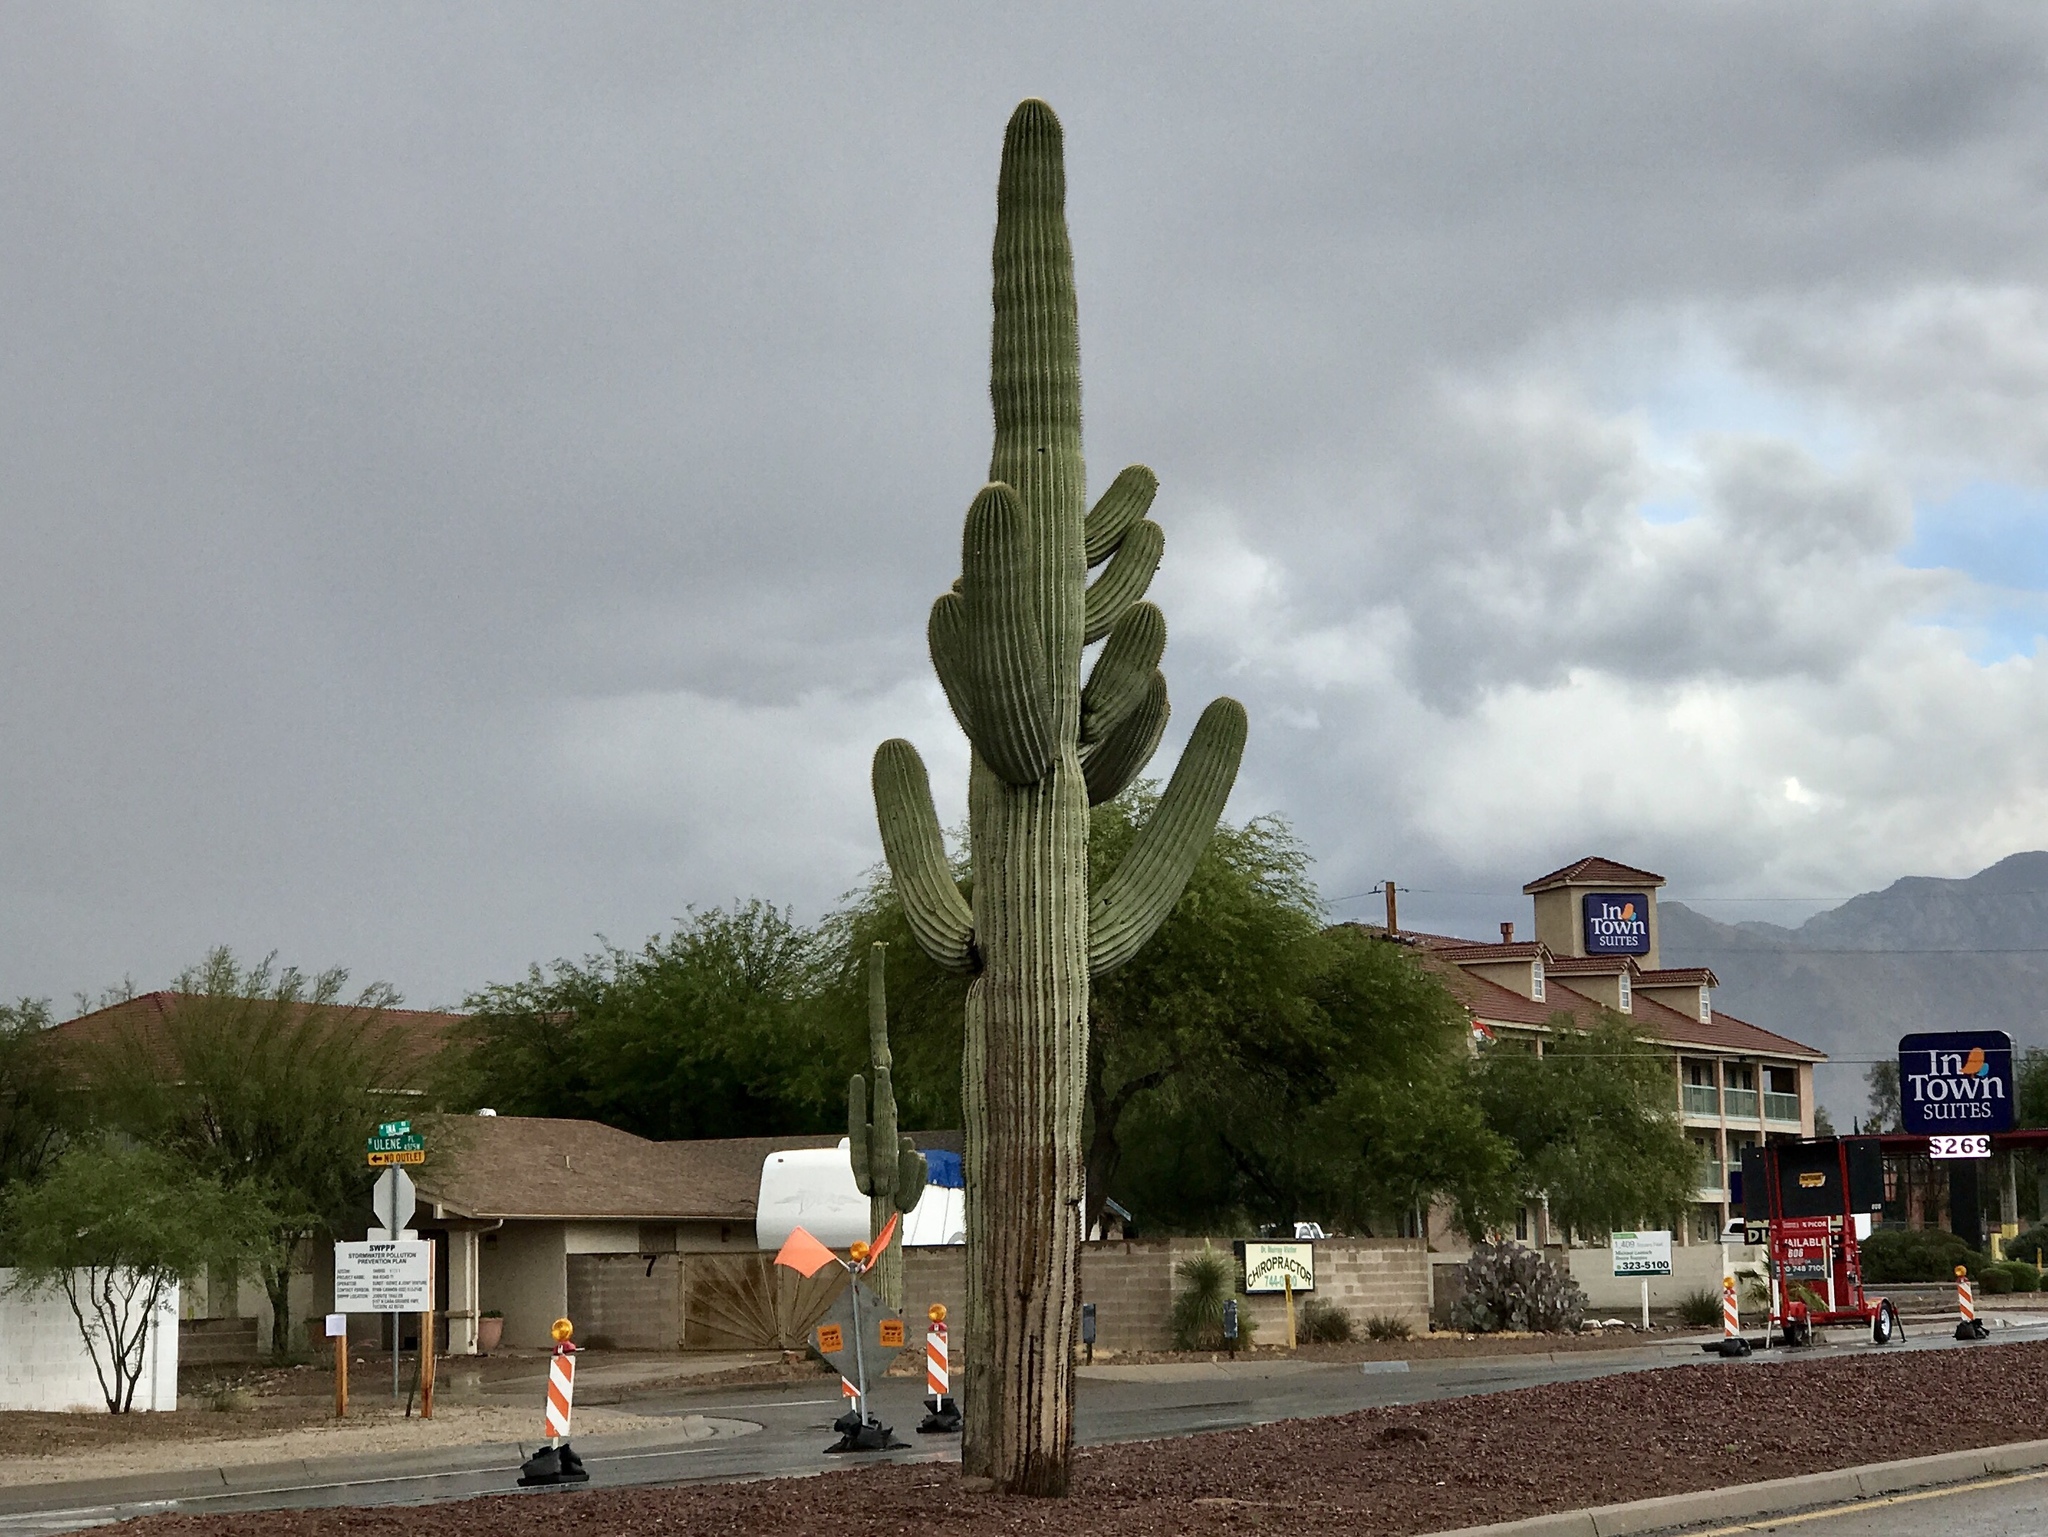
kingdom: Plantae
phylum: Tracheophyta
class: Magnoliopsida
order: Caryophyllales
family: Cactaceae
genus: Carnegiea
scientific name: Carnegiea gigantea
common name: Saguaro
